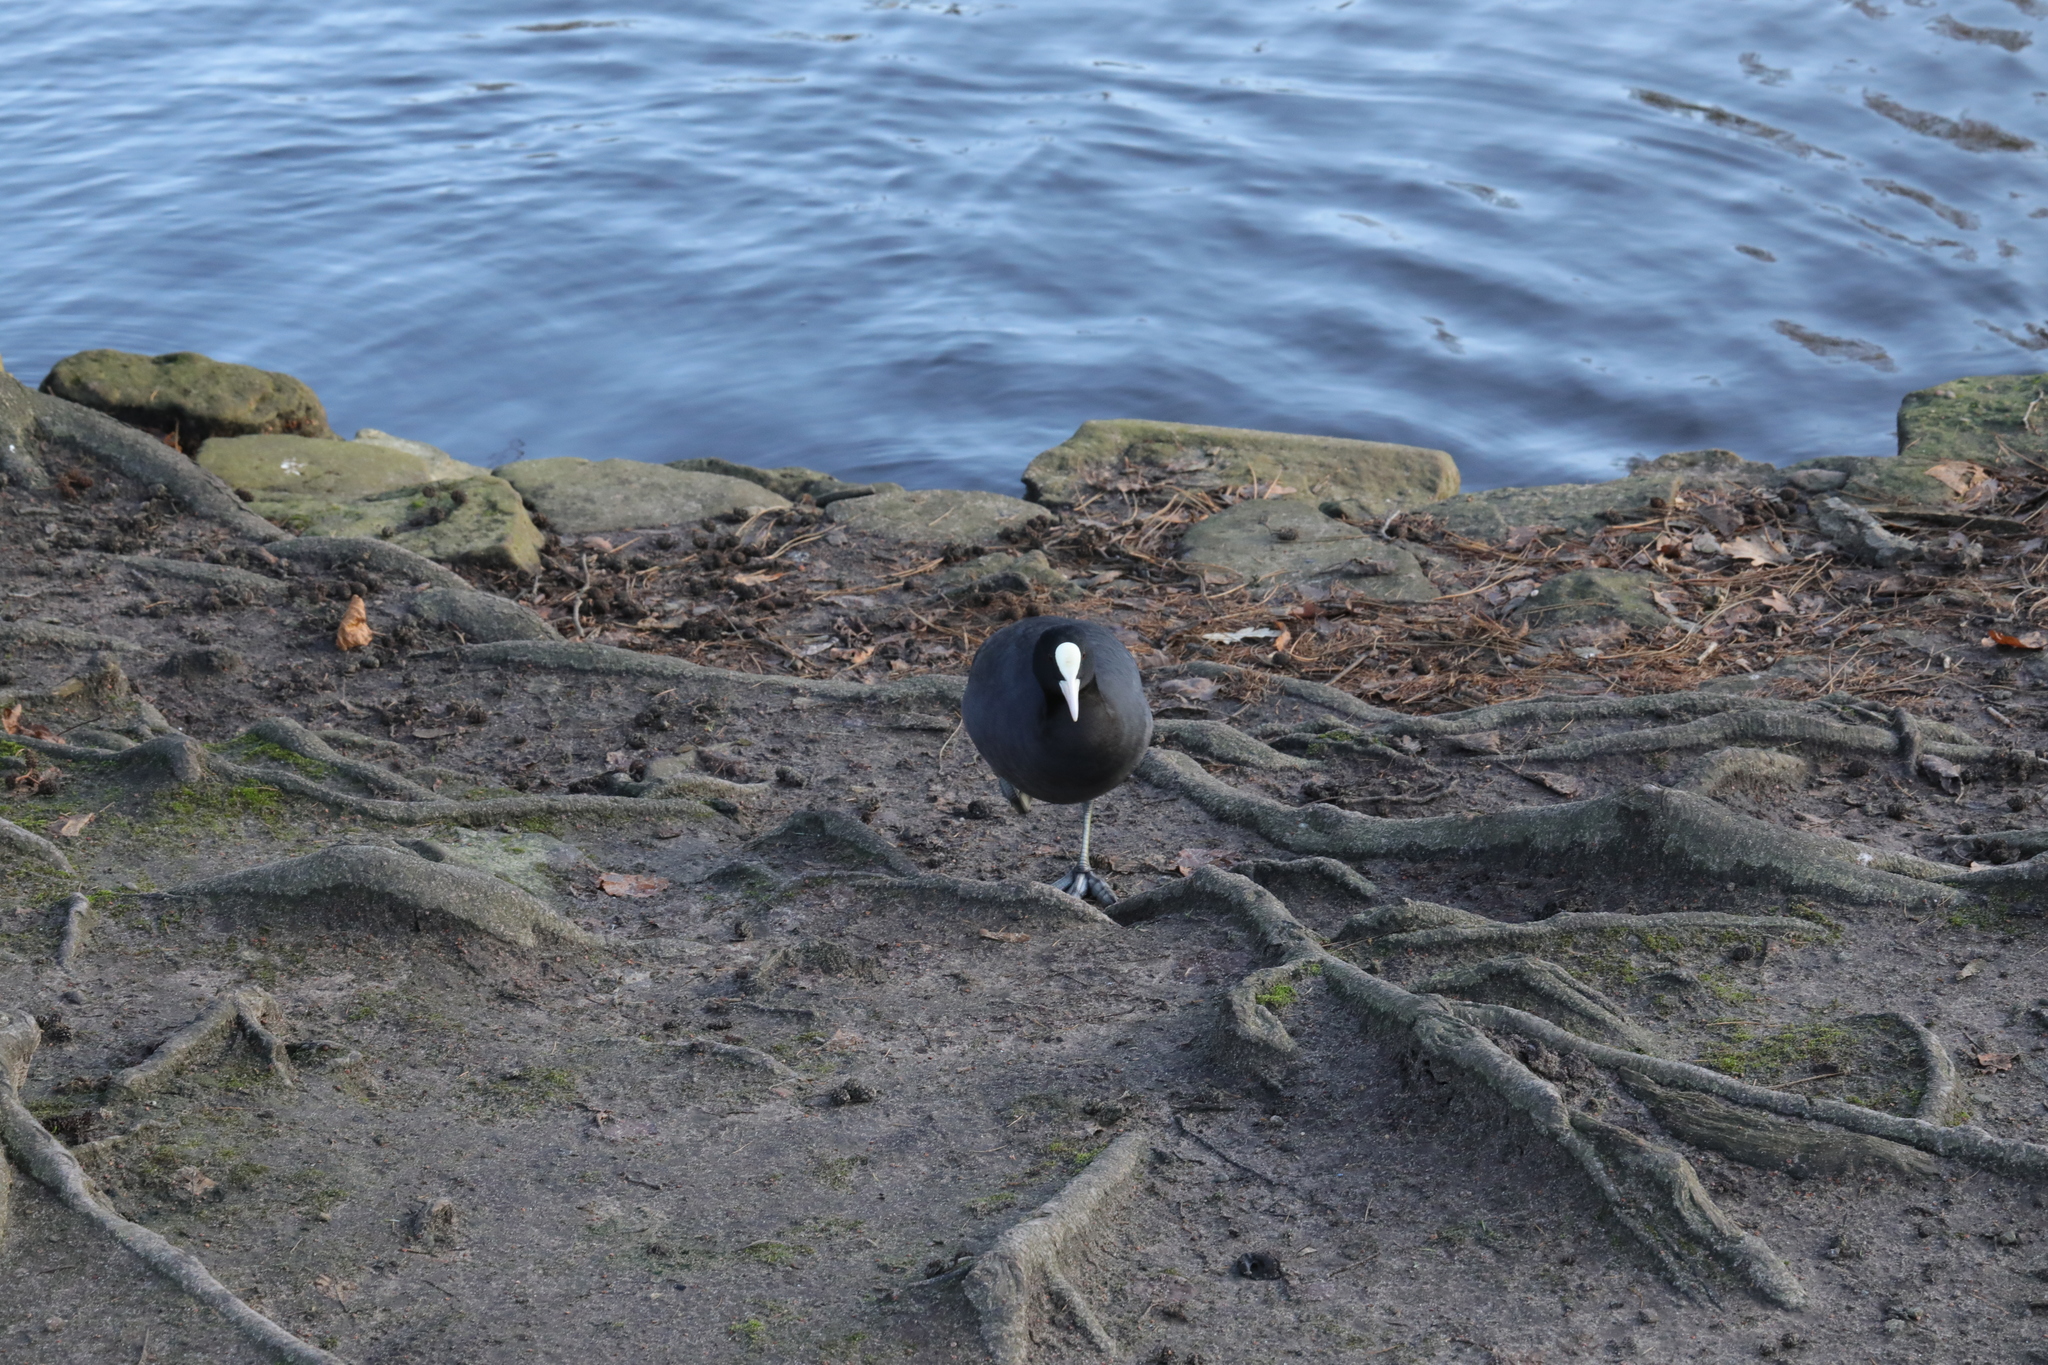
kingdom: Animalia
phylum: Chordata
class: Aves
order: Gruiformes
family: Rallidae
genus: Fulica
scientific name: Fulica atra
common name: Eurasian coot
